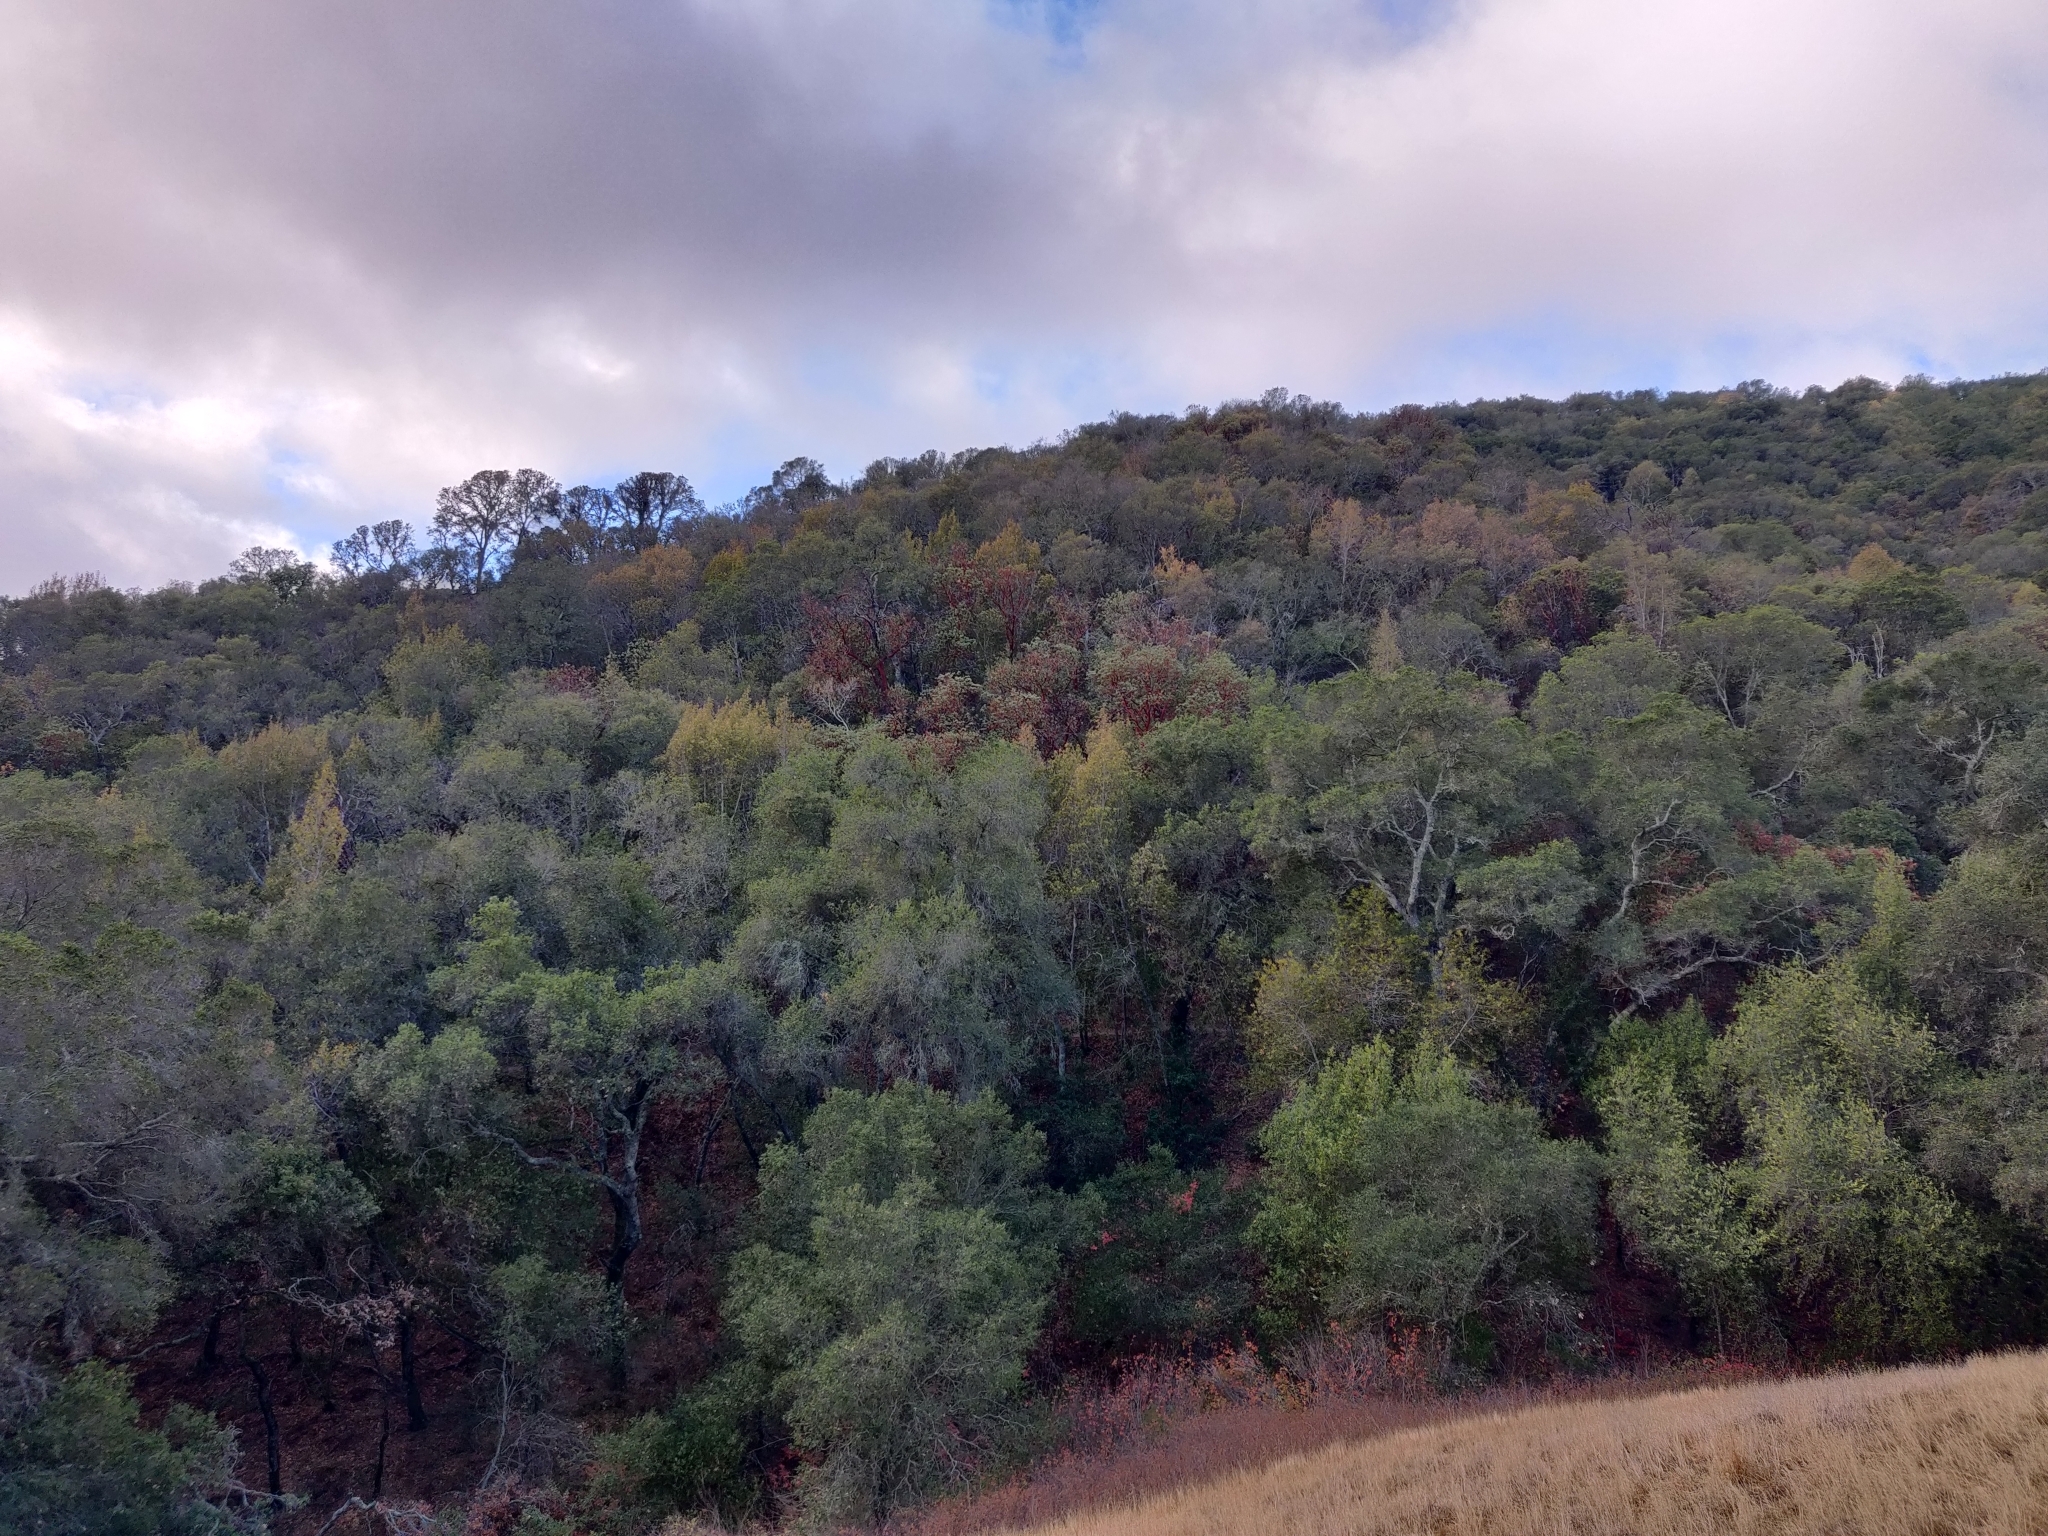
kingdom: Plantae
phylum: Tracheophyta
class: Magnoliopsida
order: Ericales
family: Ericaceae
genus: Arbutus
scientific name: Arbutus menziesii
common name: Pacific madrone
